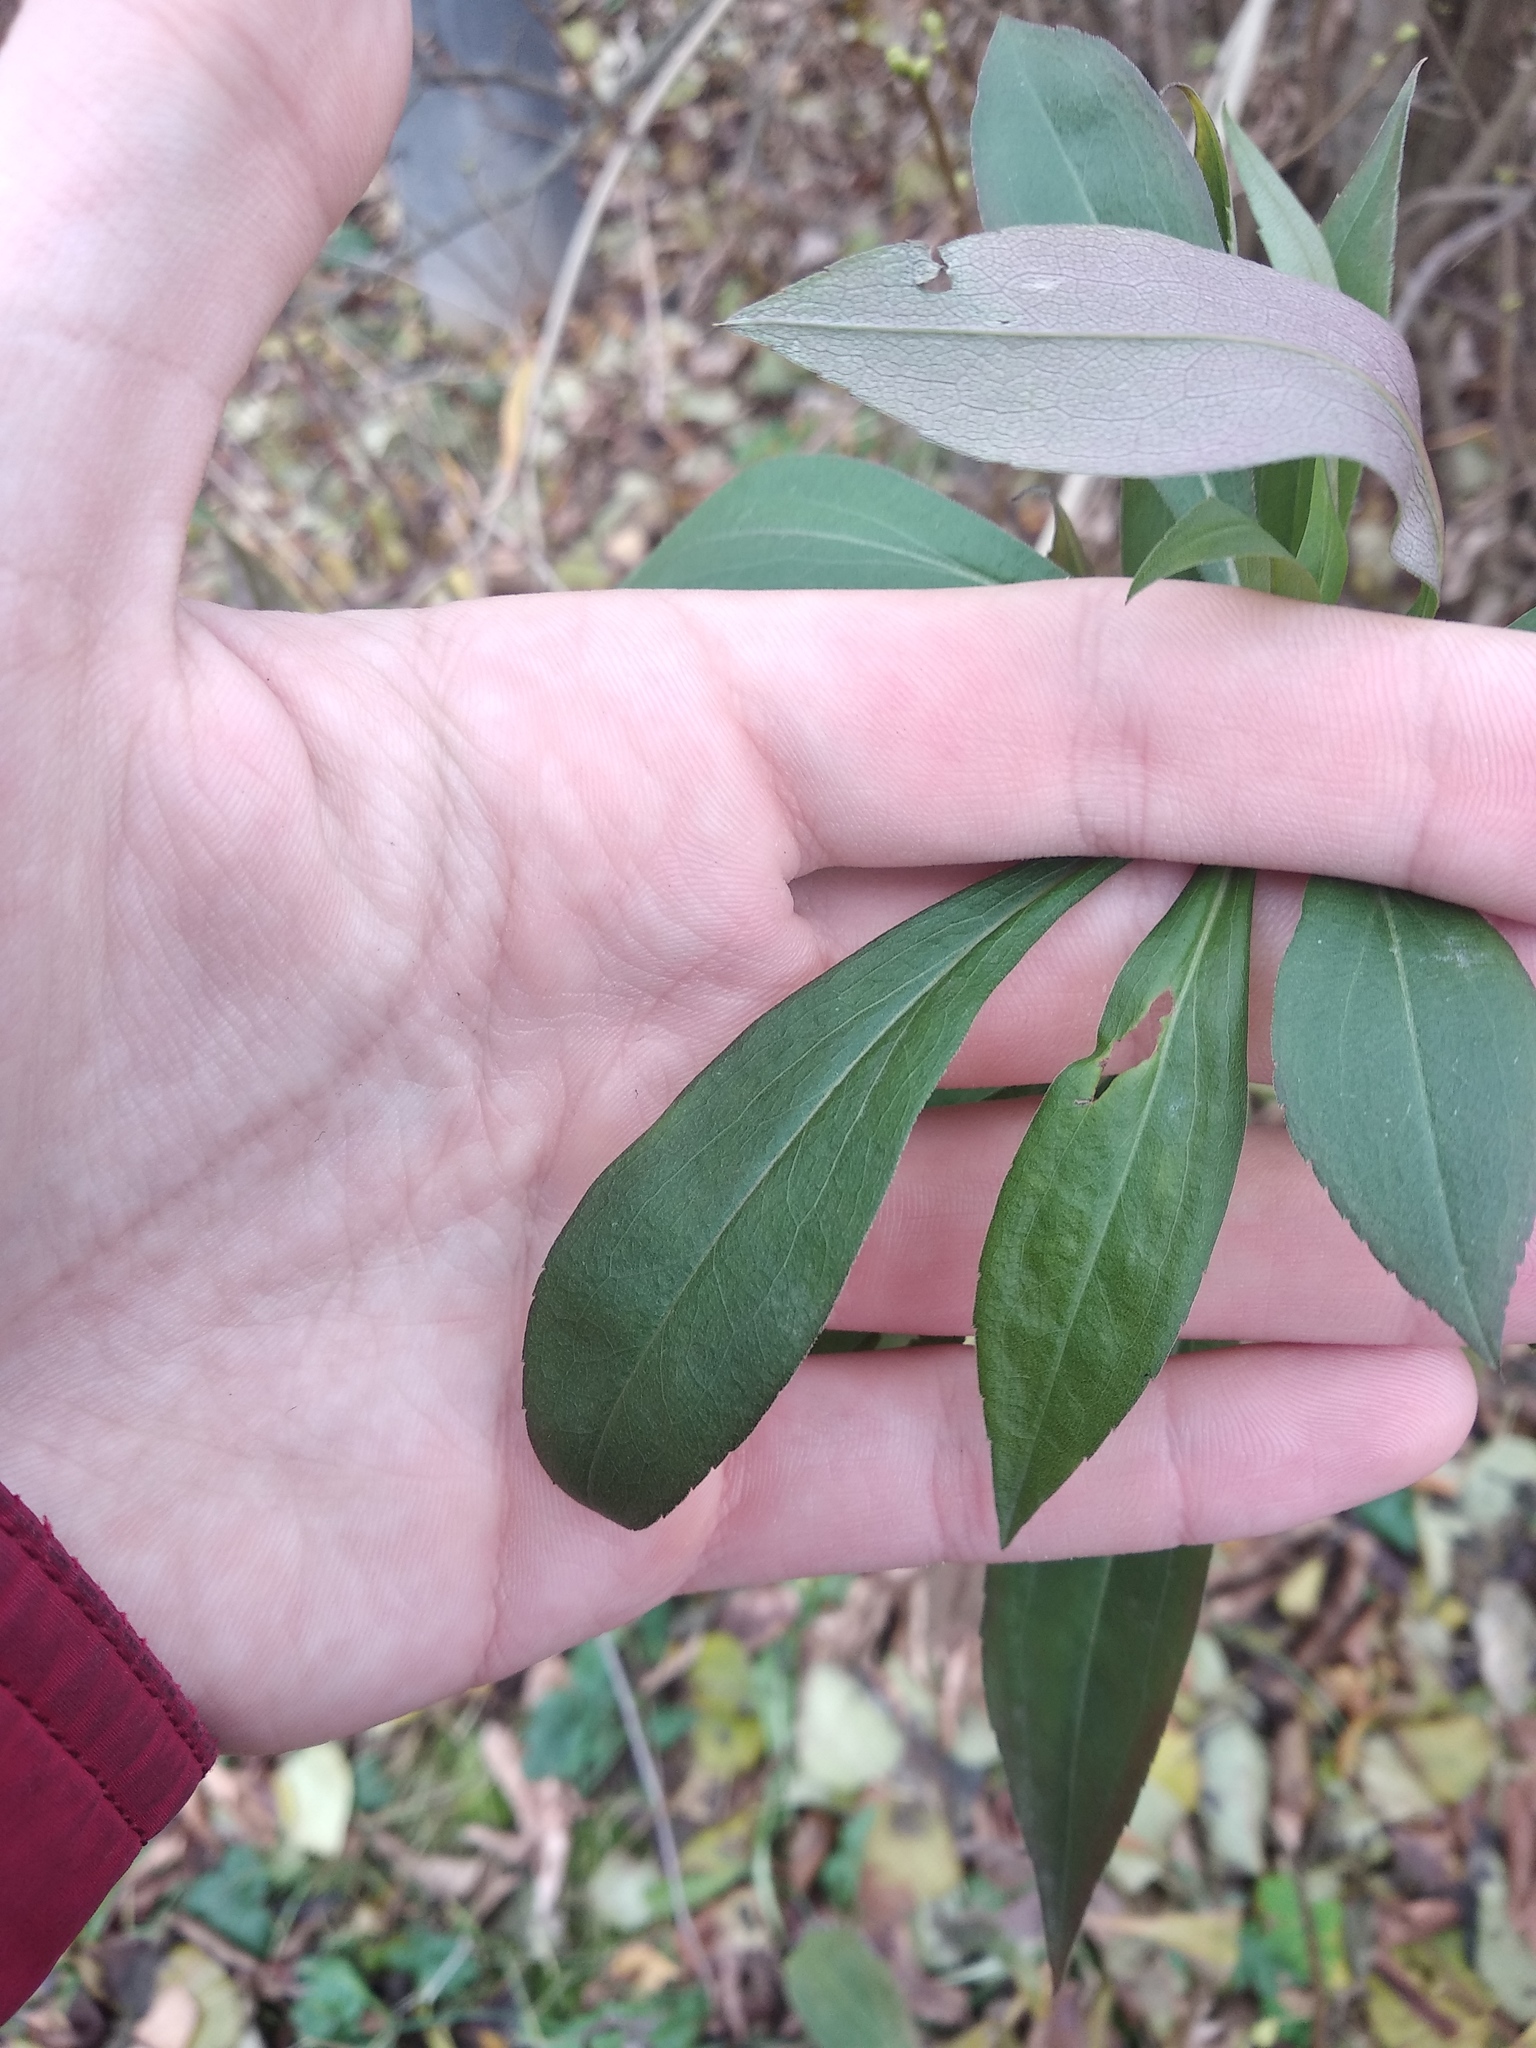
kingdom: Plantae
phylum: Tracheophyta
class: Magnoliopsida
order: Asterales
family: Asteraceae
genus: Solidago
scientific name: Solidago gigantea
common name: Giant goldenrod
